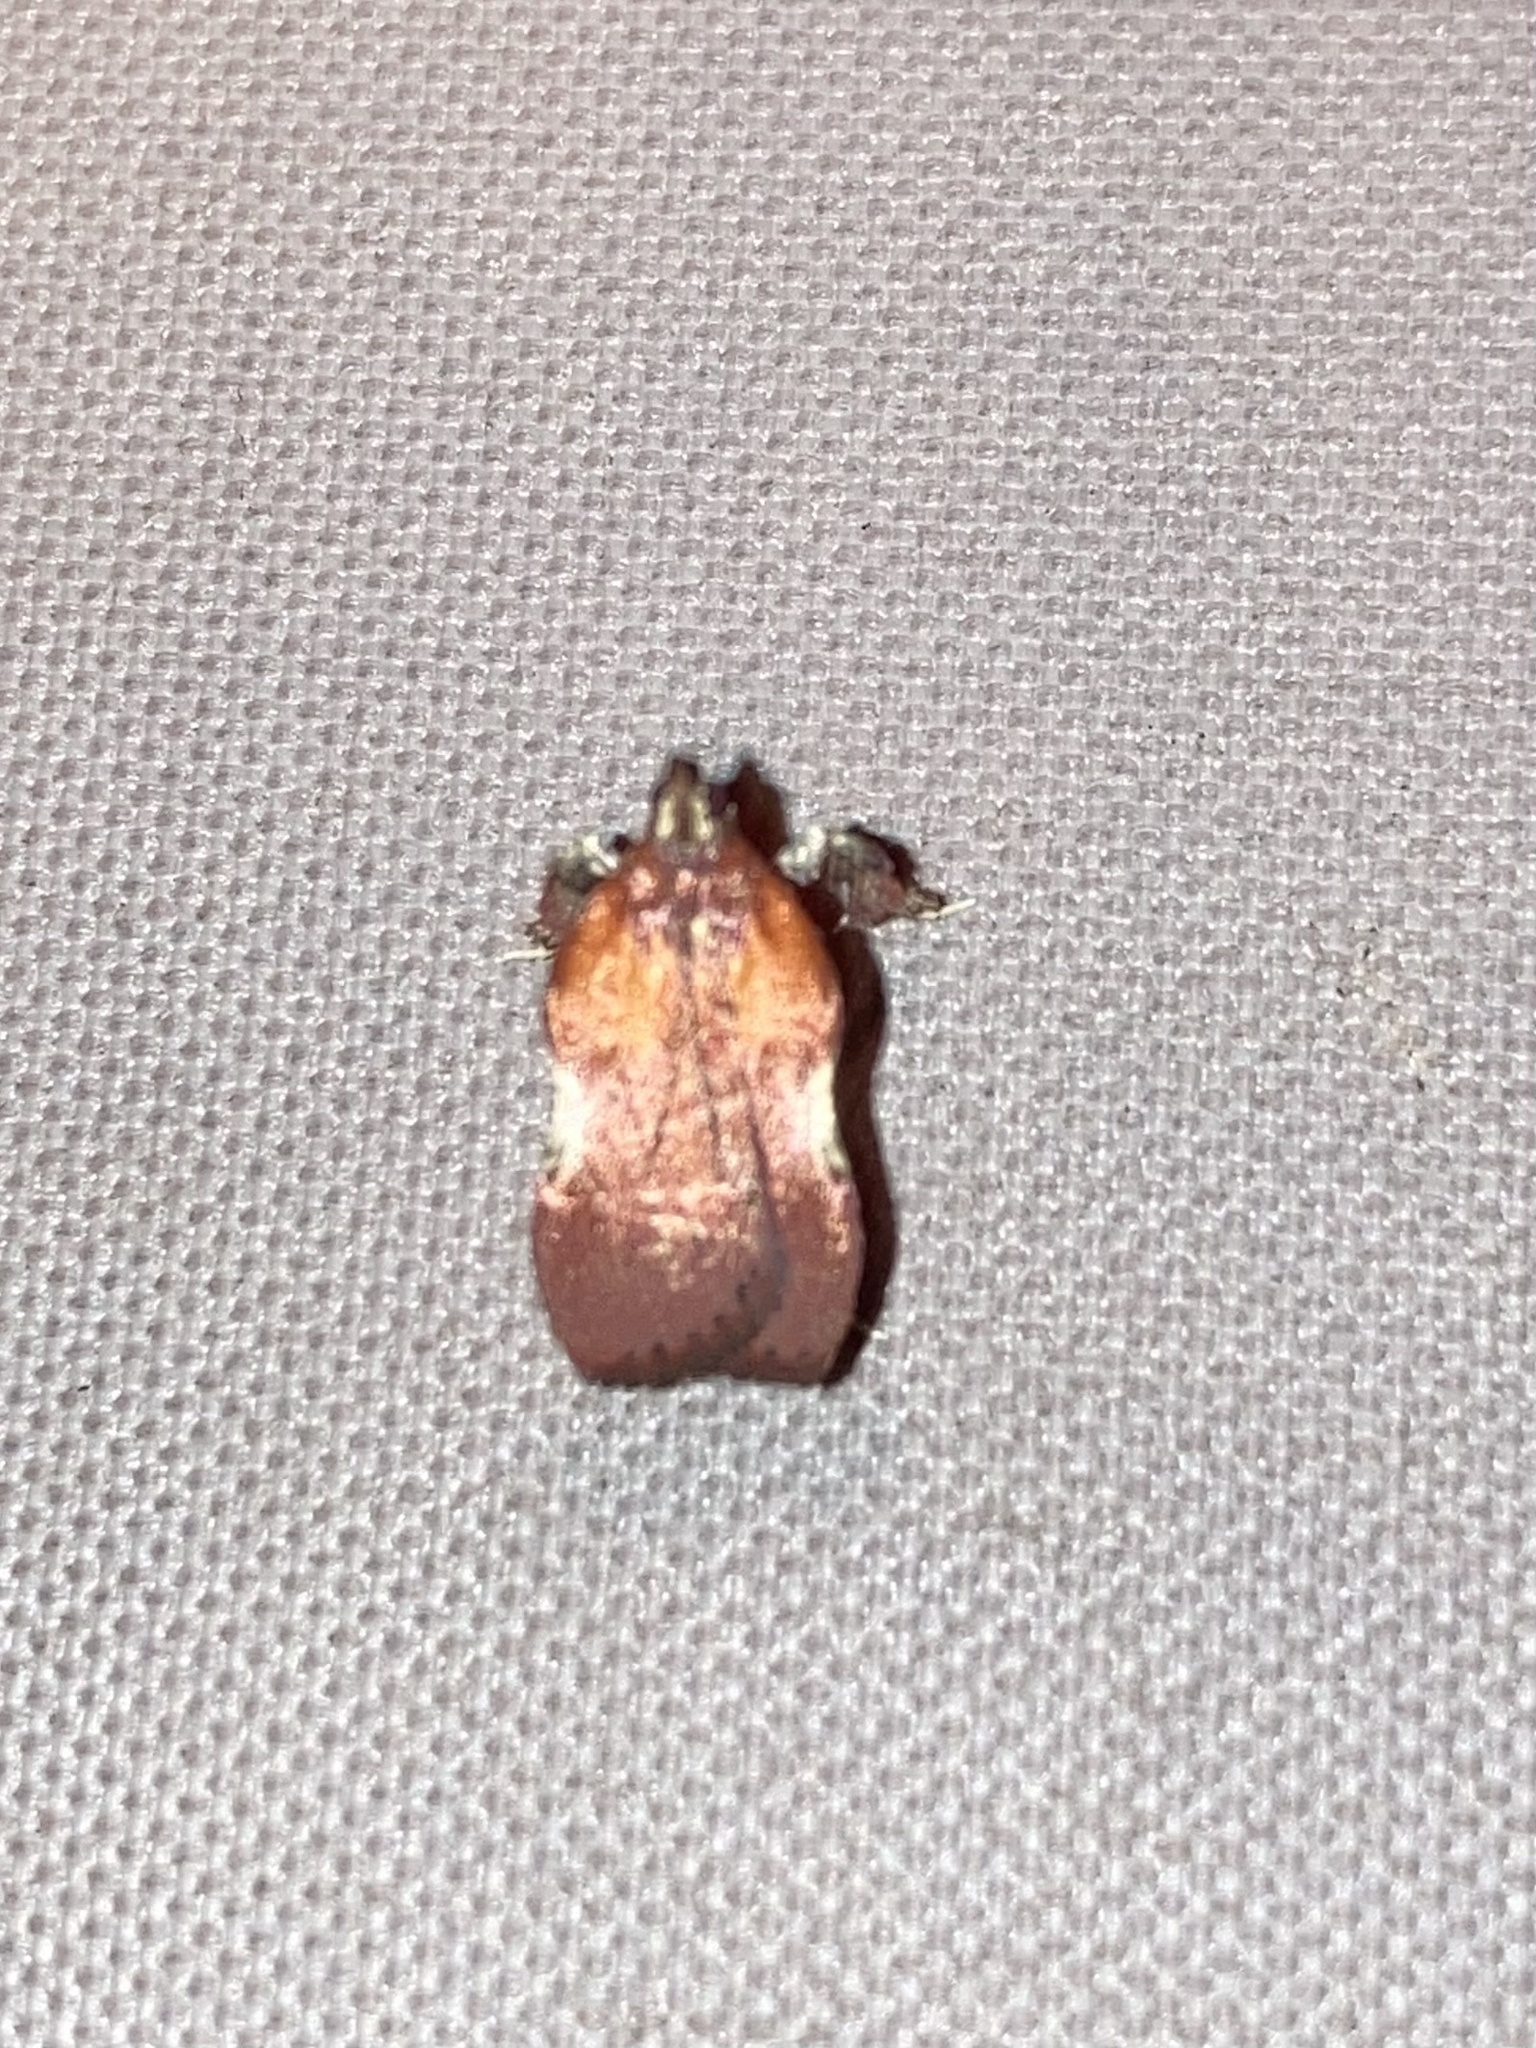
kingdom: Animalia
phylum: Arthropoda
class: Insecta
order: Lepidoptera
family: Pyralidae
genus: Galasa
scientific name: Galasa nigrinodis
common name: Boxwood leaftier moth
